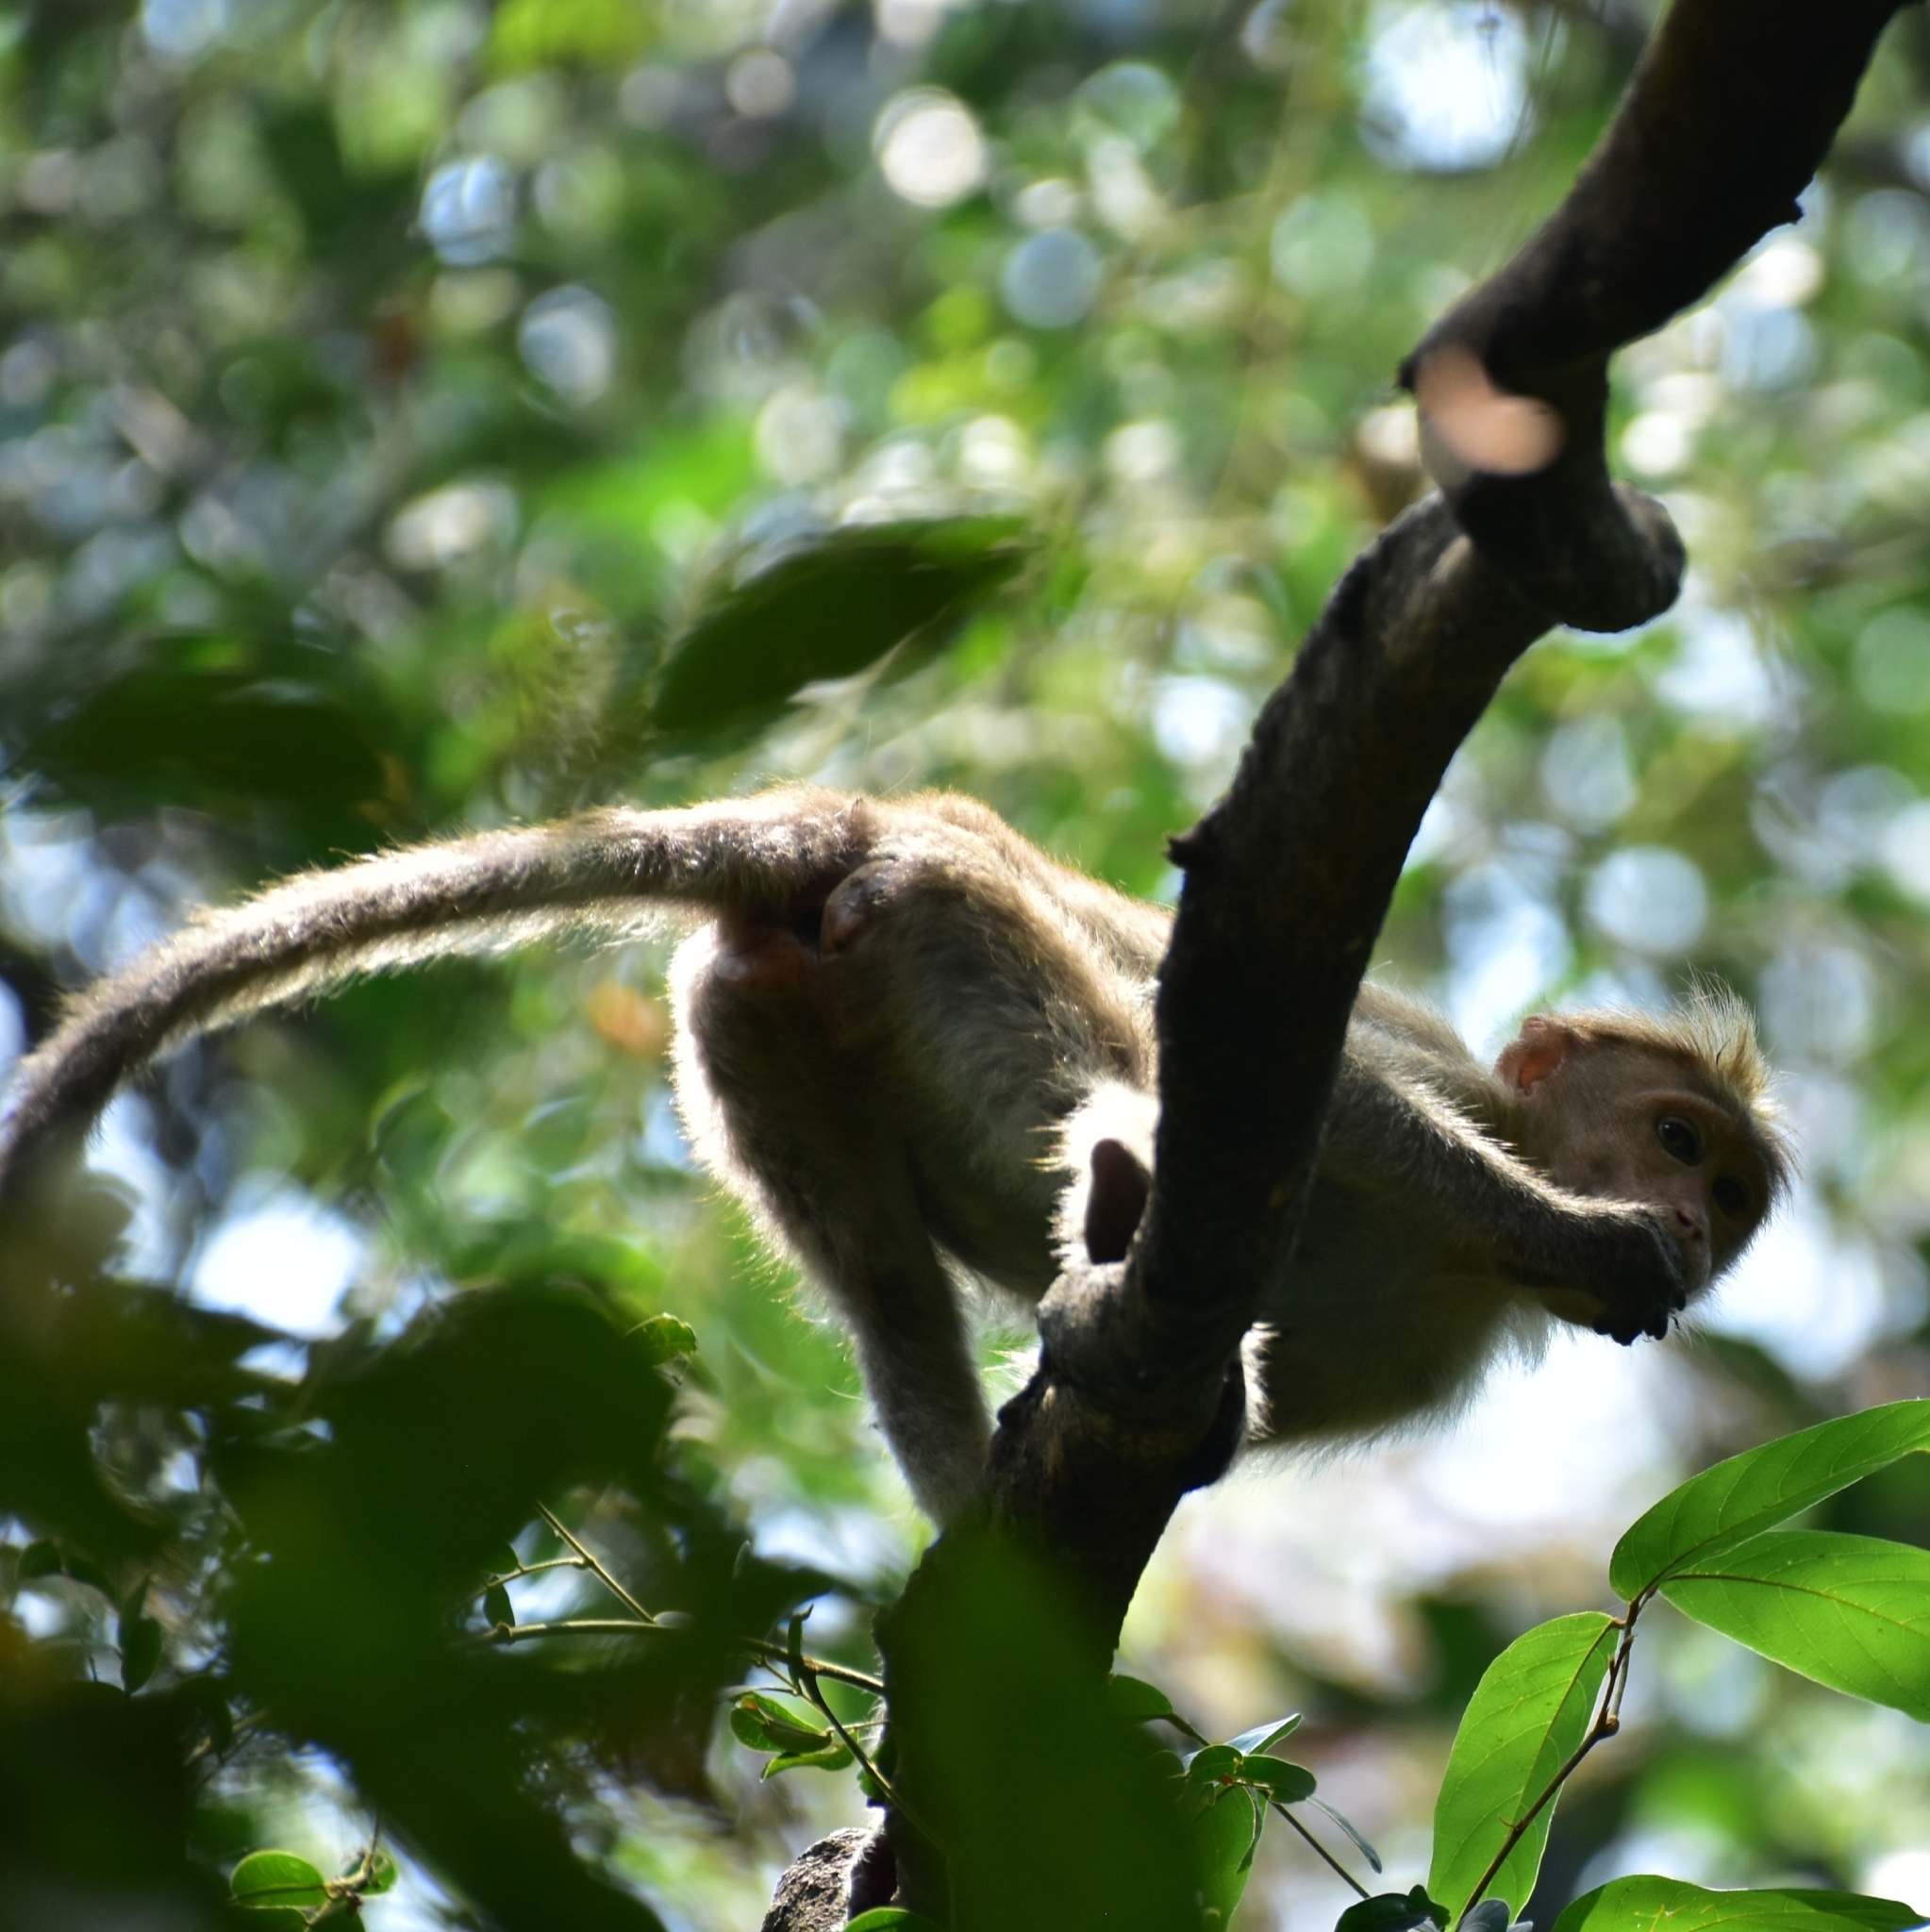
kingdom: Animalia
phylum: Chordata
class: Mammalia
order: Primates
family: Cercopithecidae
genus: Macaca
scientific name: Macaca radiata
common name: Bonnet macaque
